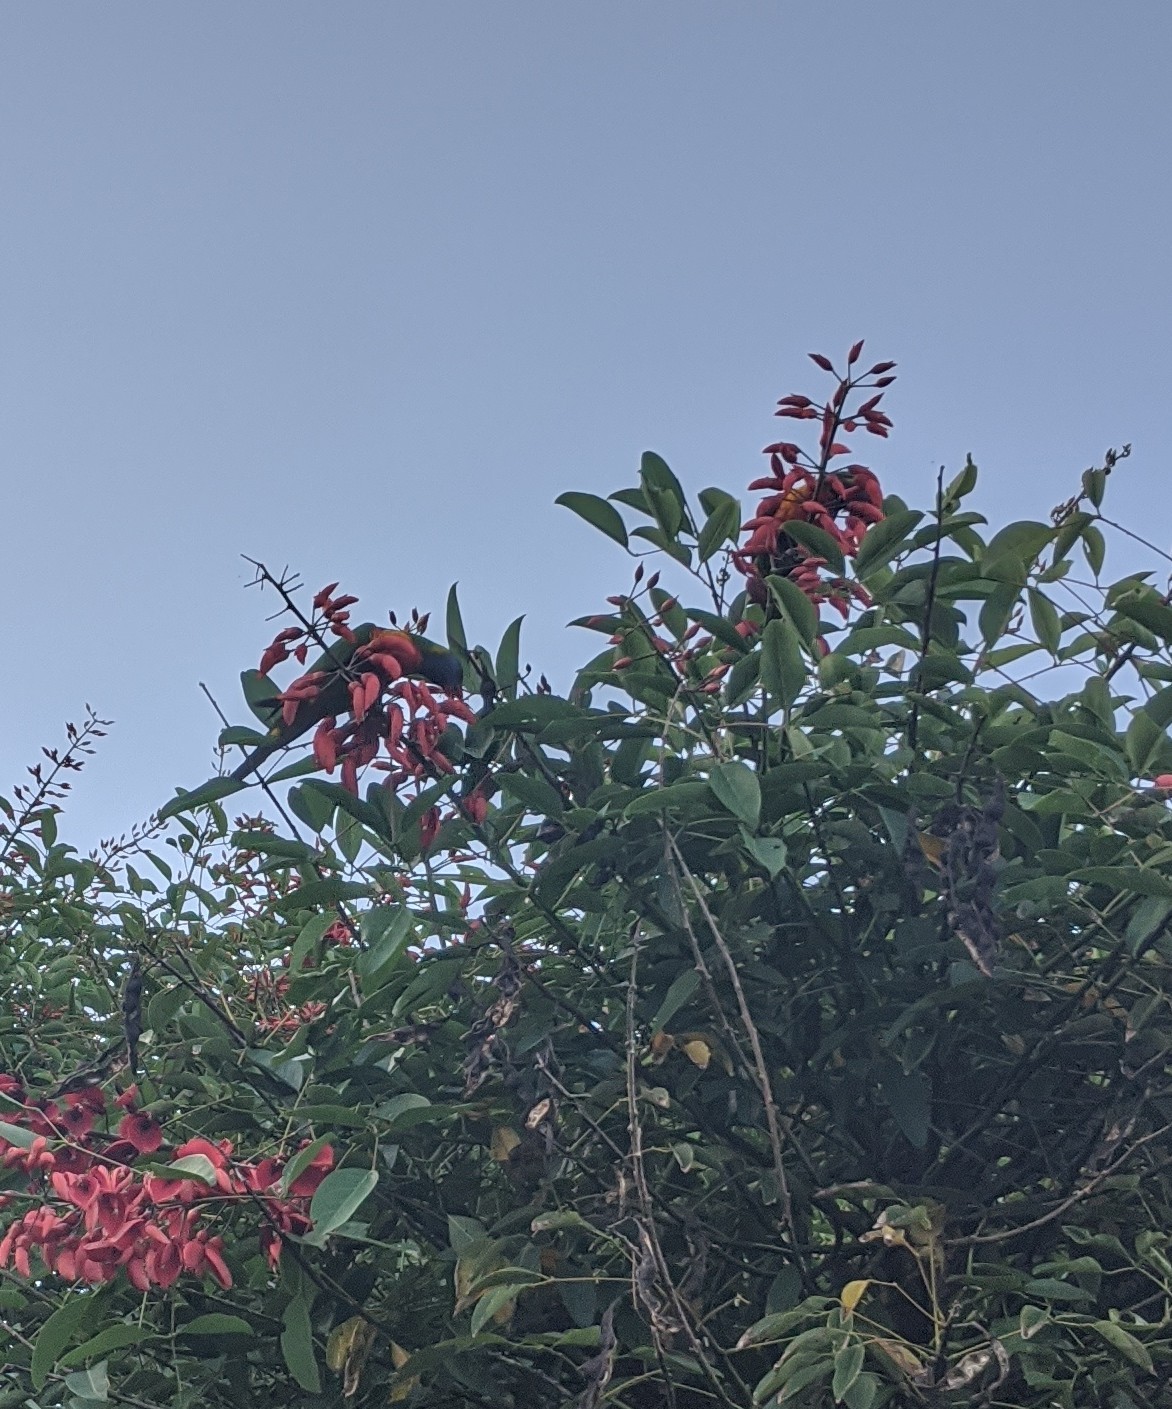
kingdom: Animalia
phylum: Chordata
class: Aves
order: Psittaciformes
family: Psittacidae
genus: Trichoglossus
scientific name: Trichoglossus haematodus
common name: Coconut lorikeet
